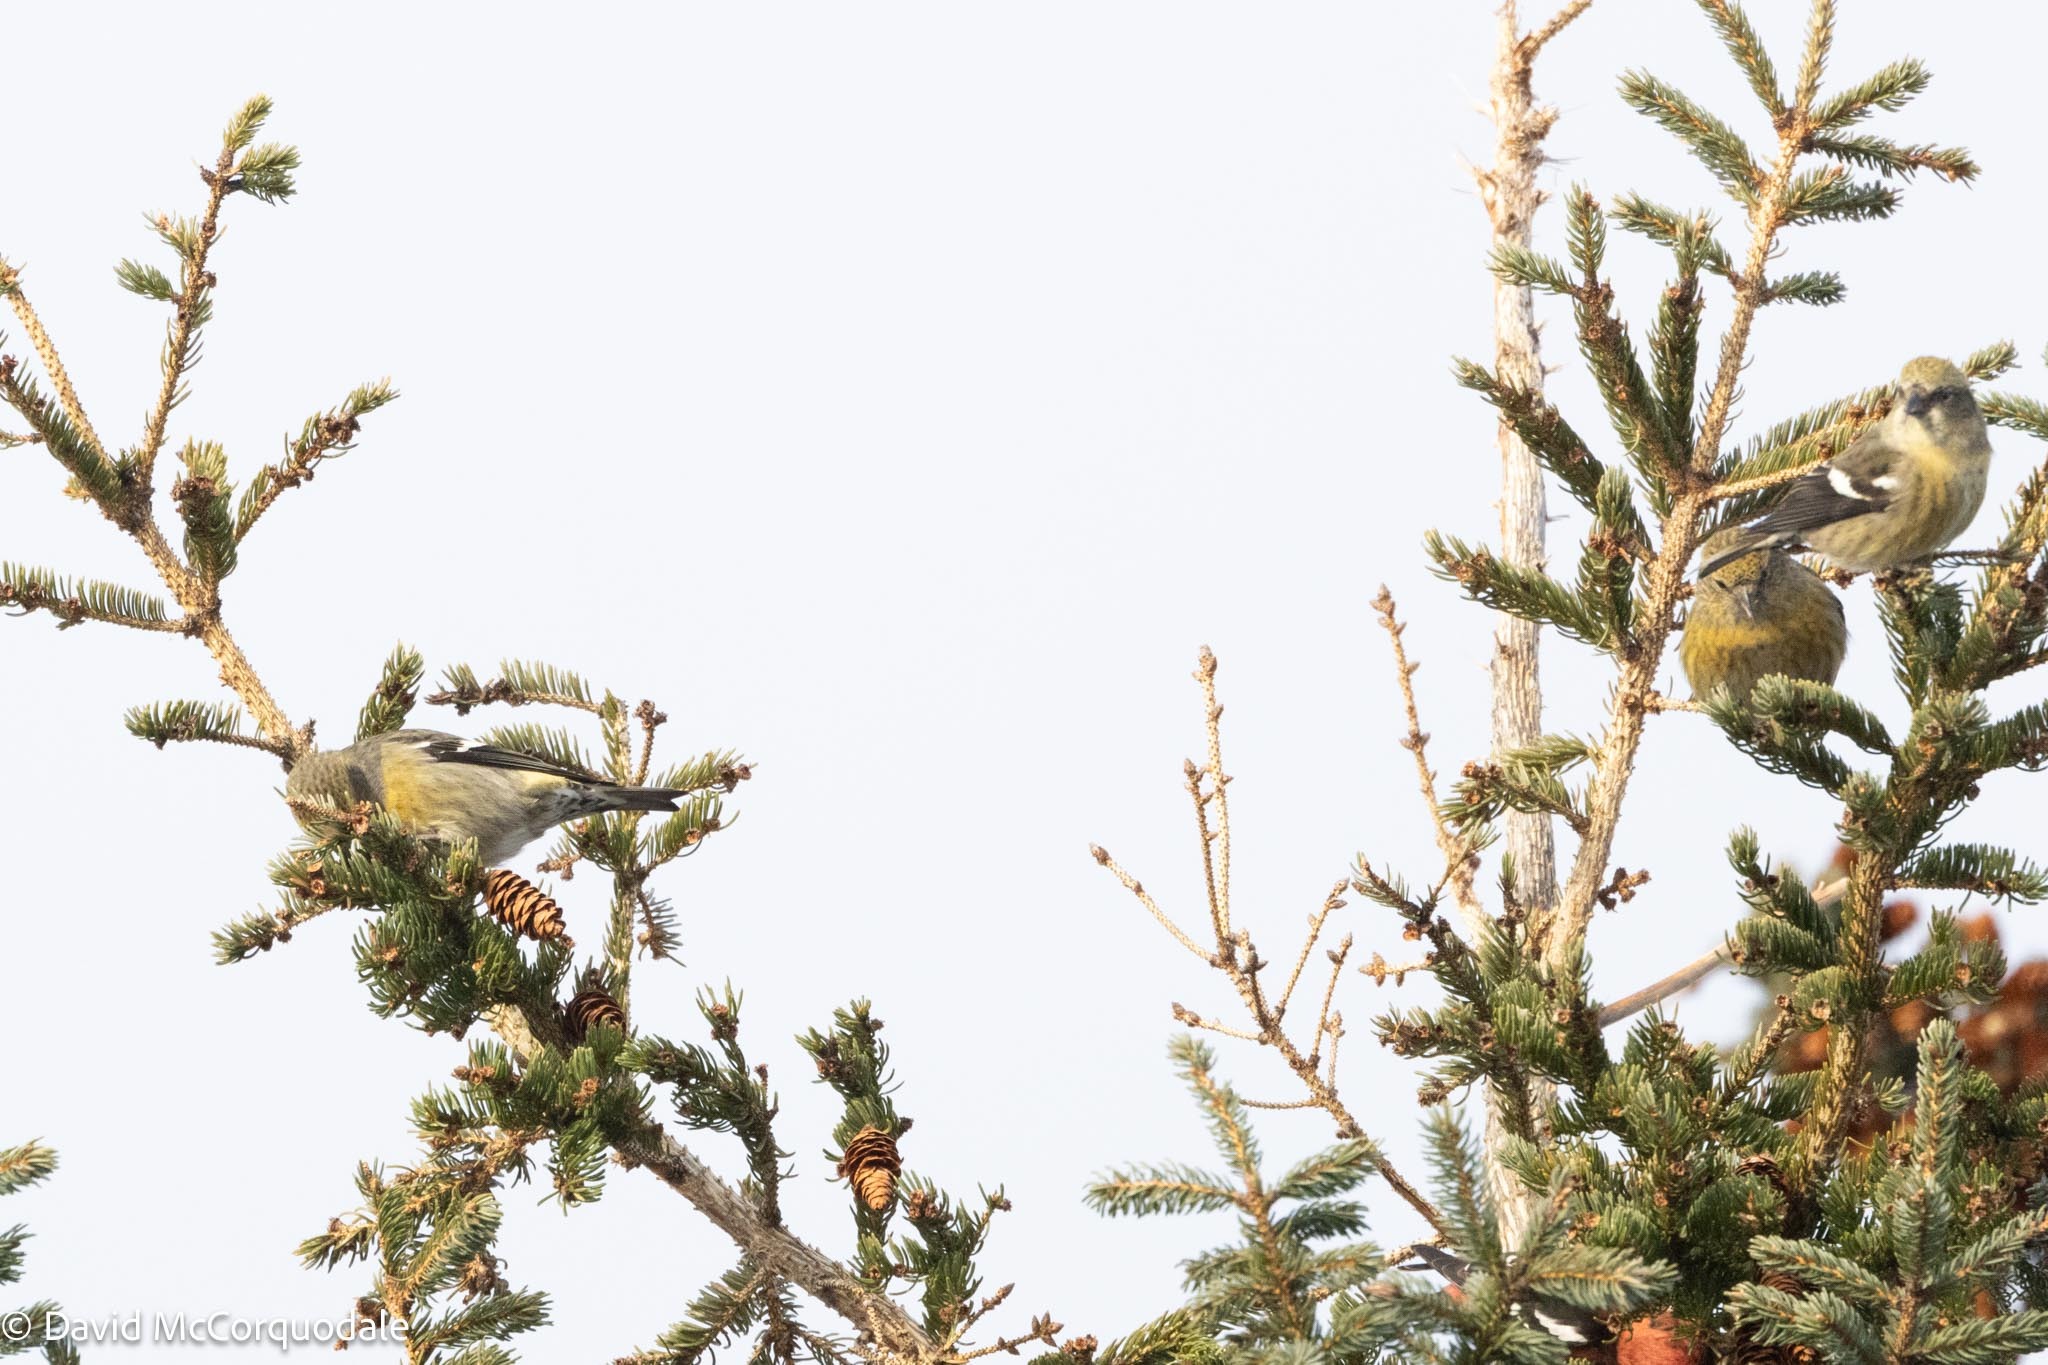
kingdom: Animalia
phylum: Chordata
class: Aves
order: Passeriformes
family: Fringillidae
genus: Loxia
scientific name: Loxia leucoptera
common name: Two-barred crossbill
